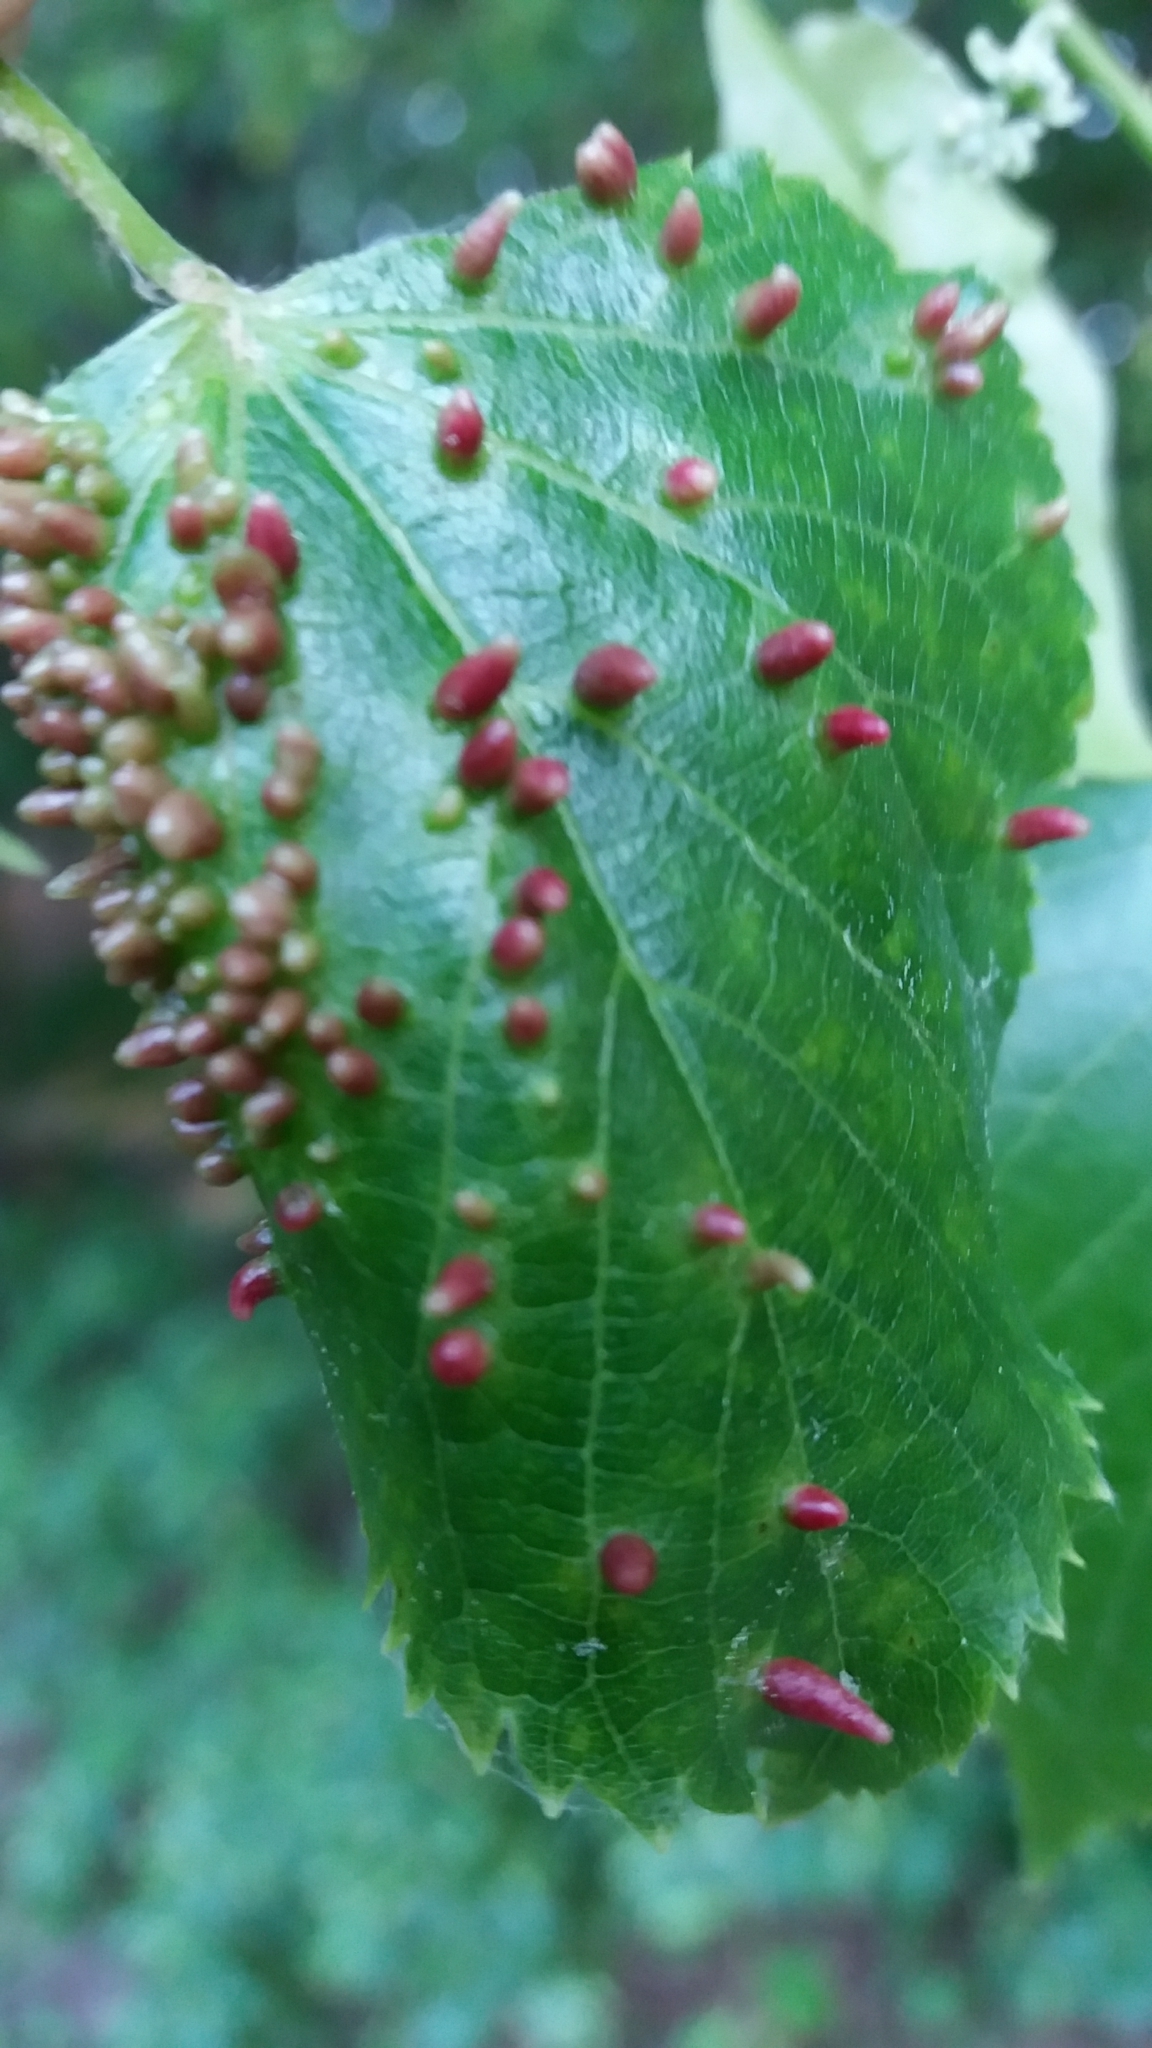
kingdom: Animalia
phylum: Arthropoda
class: Arachnida
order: Trombidiformes
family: Eriophyidae
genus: Eriophyes
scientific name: Eriophyes tiliae
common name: Red nail gall mite
